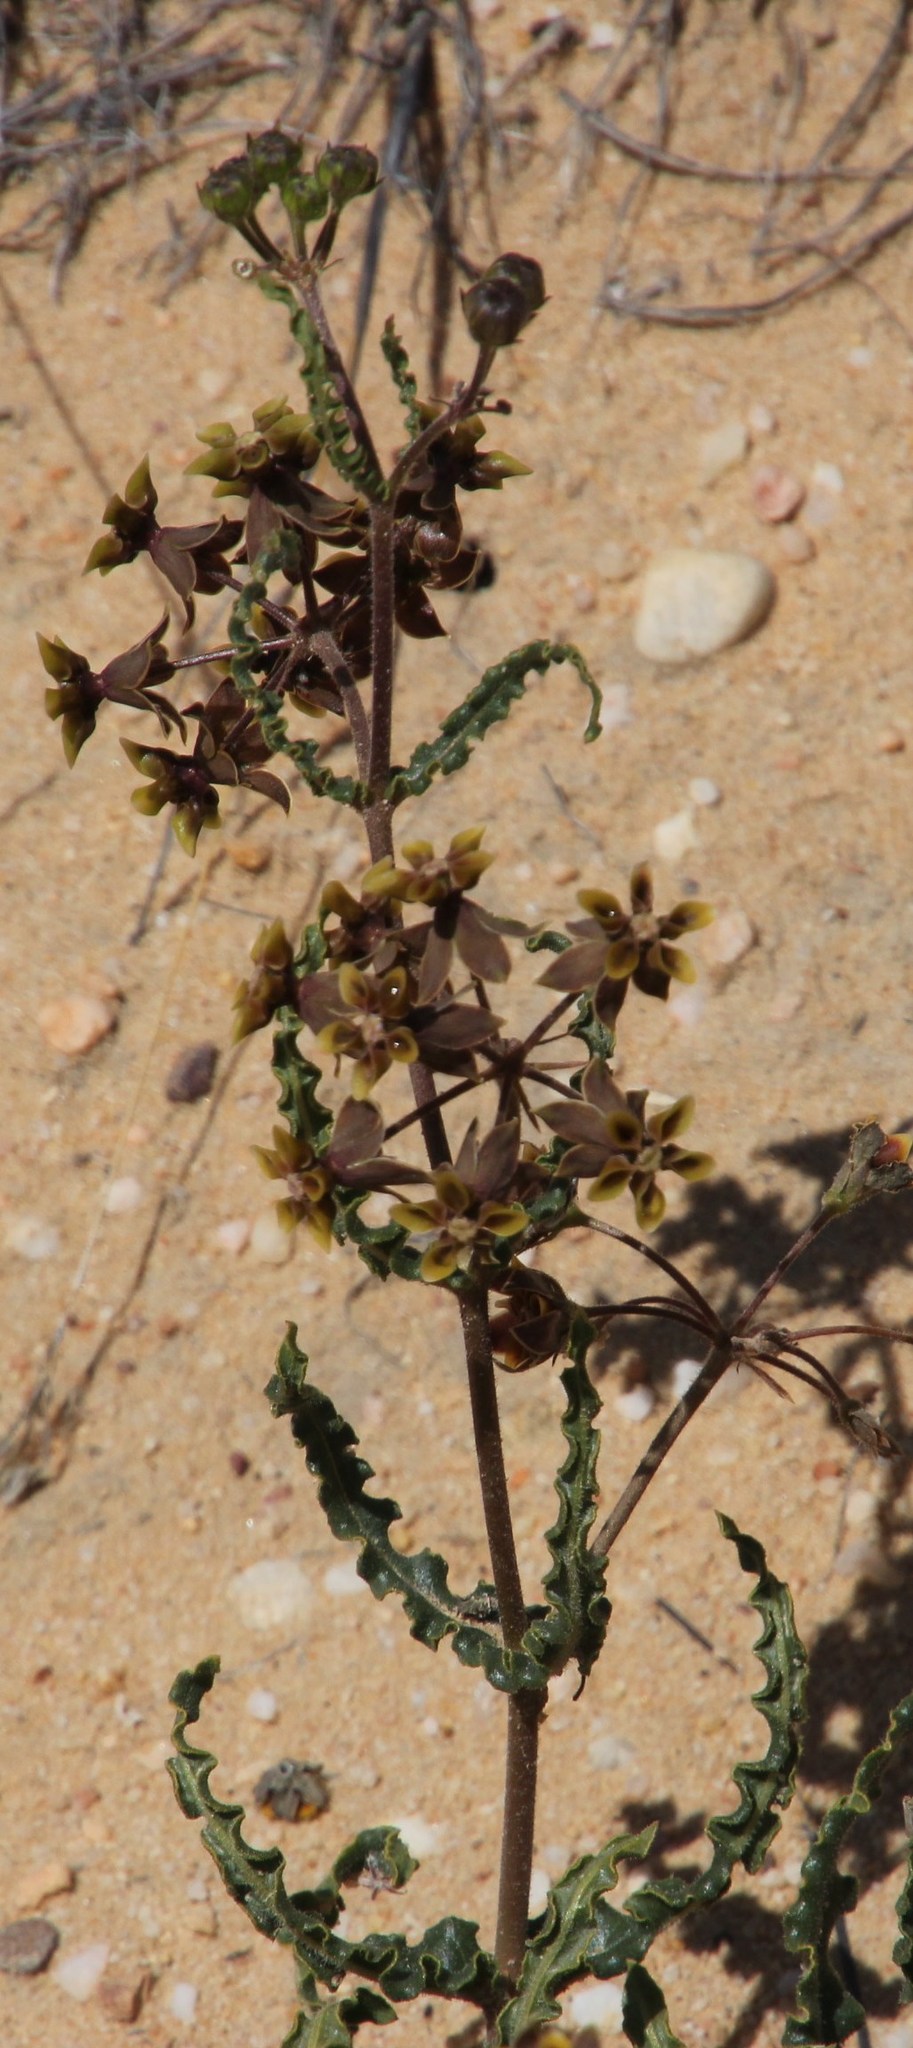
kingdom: Plantae
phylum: Tracheophyta
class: Magnoliopsida
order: Gentianales
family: Apocynaceae
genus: Asclepias
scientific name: Asclepias crispa
